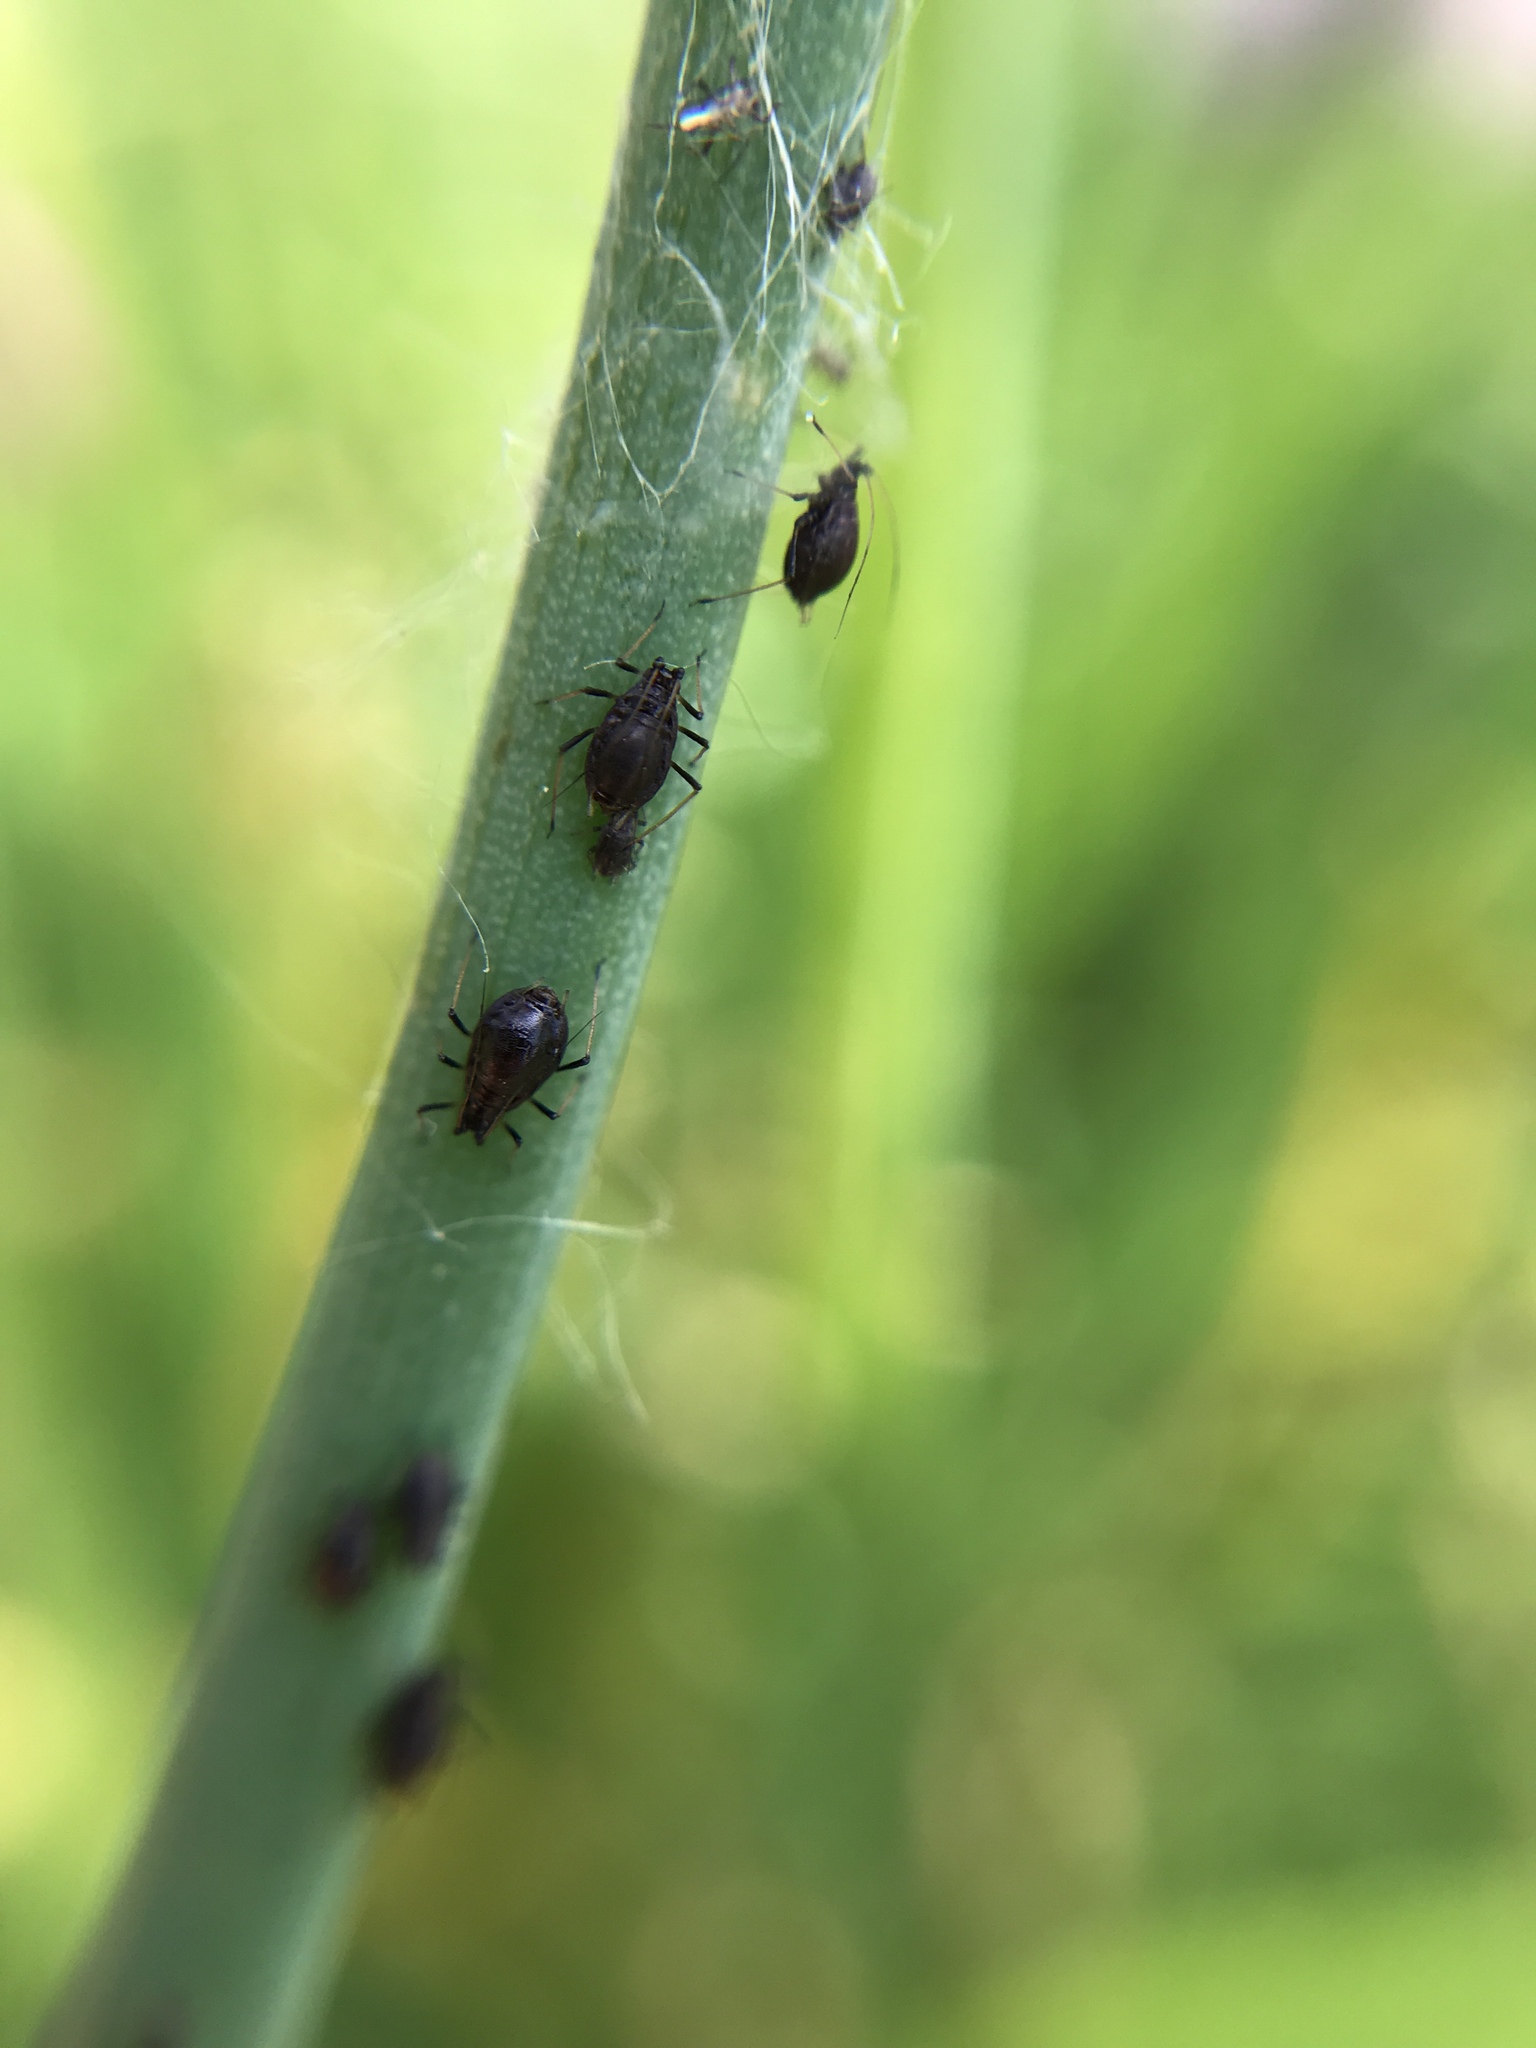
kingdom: Animalia
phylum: Arthropoda
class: Insecta
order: Hemiptera
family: Aphididae
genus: Neotoxoptera
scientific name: Neotoxoptera formosana
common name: Onion aphid
